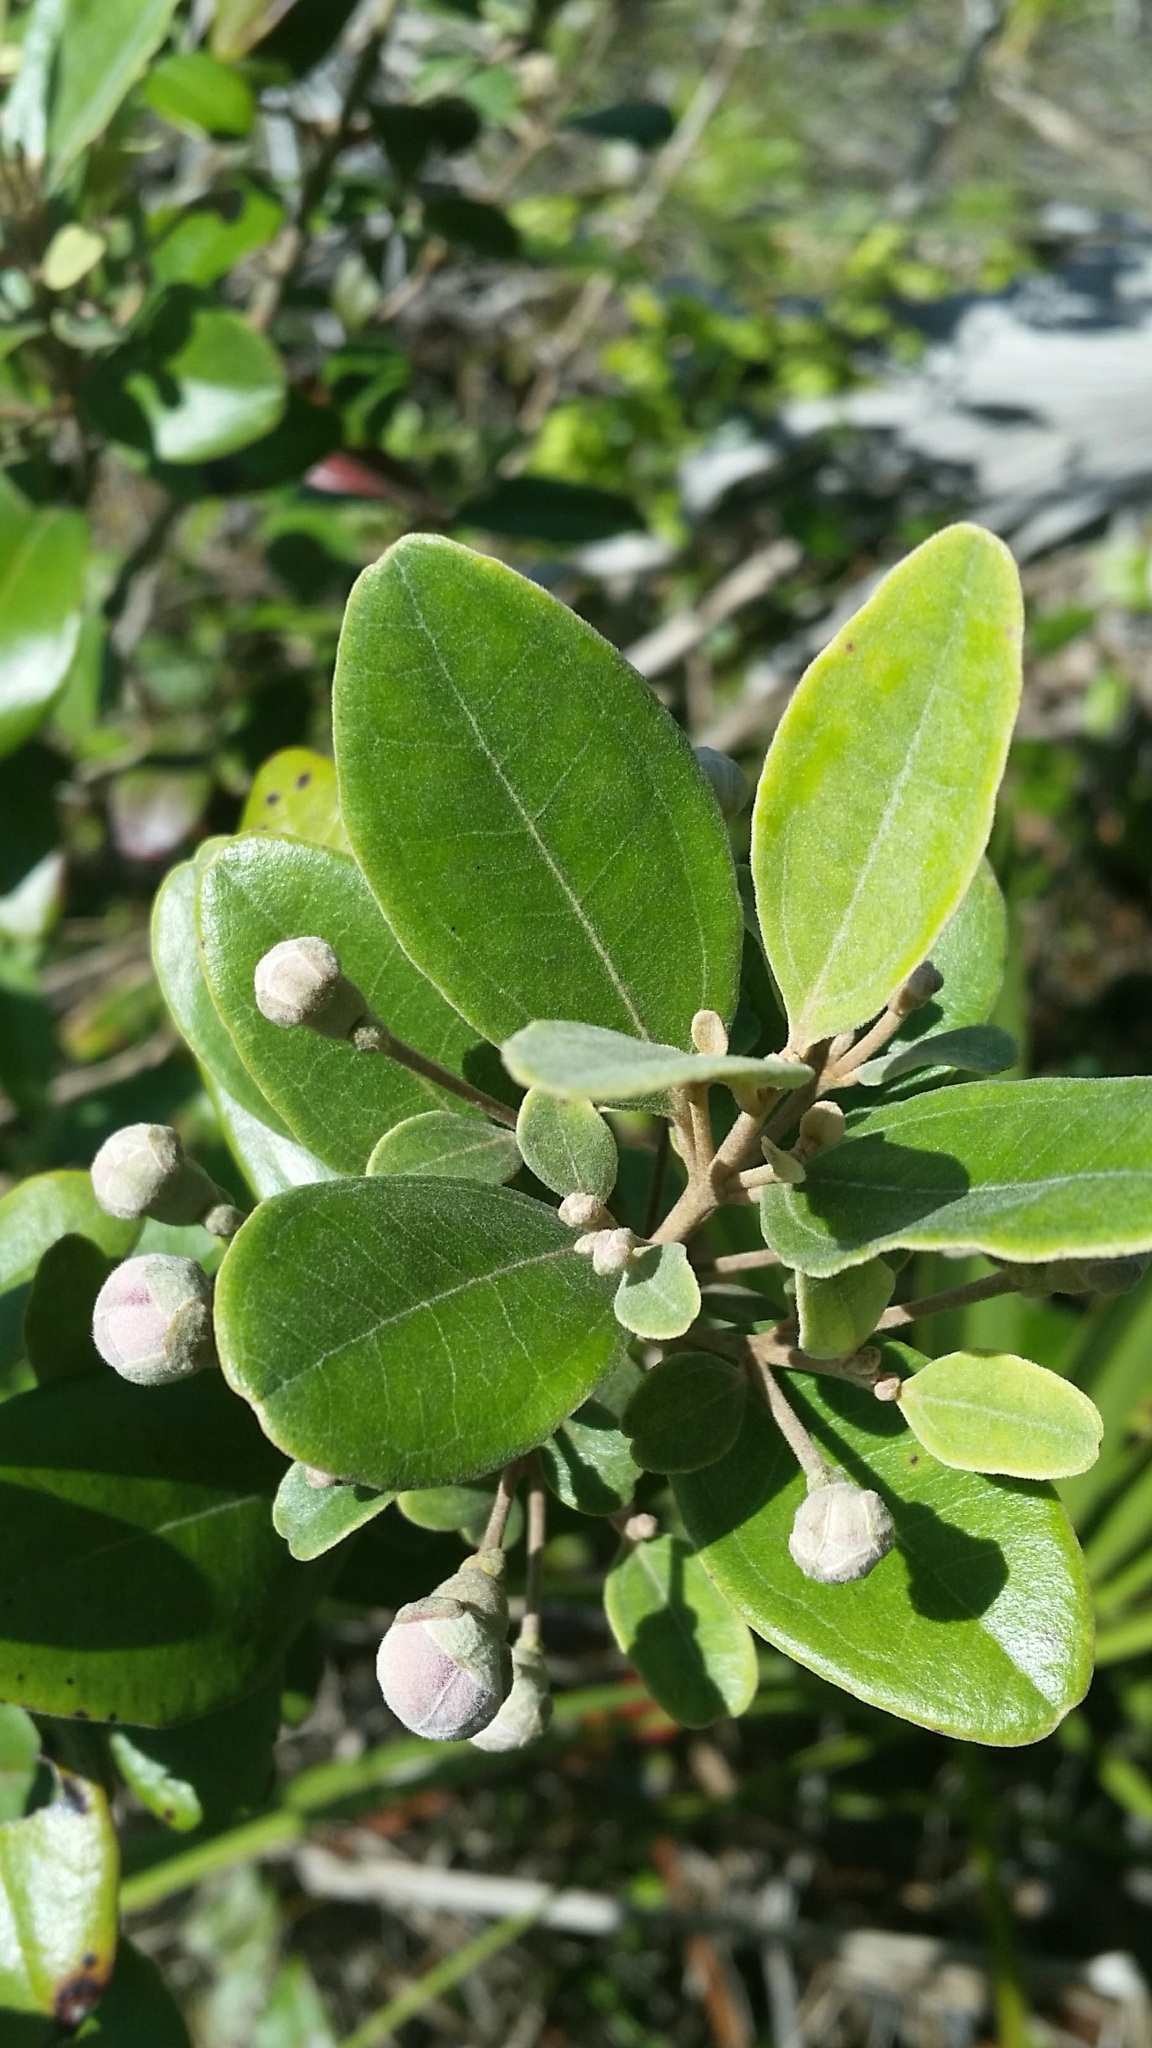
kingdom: Plantae
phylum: Tracheophyta
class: Magnoliopsida
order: Myrtales
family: Myrtaceae
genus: Rhodomyrtus
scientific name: Rhodomyrtus tomentosa
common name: Rose myrtle
